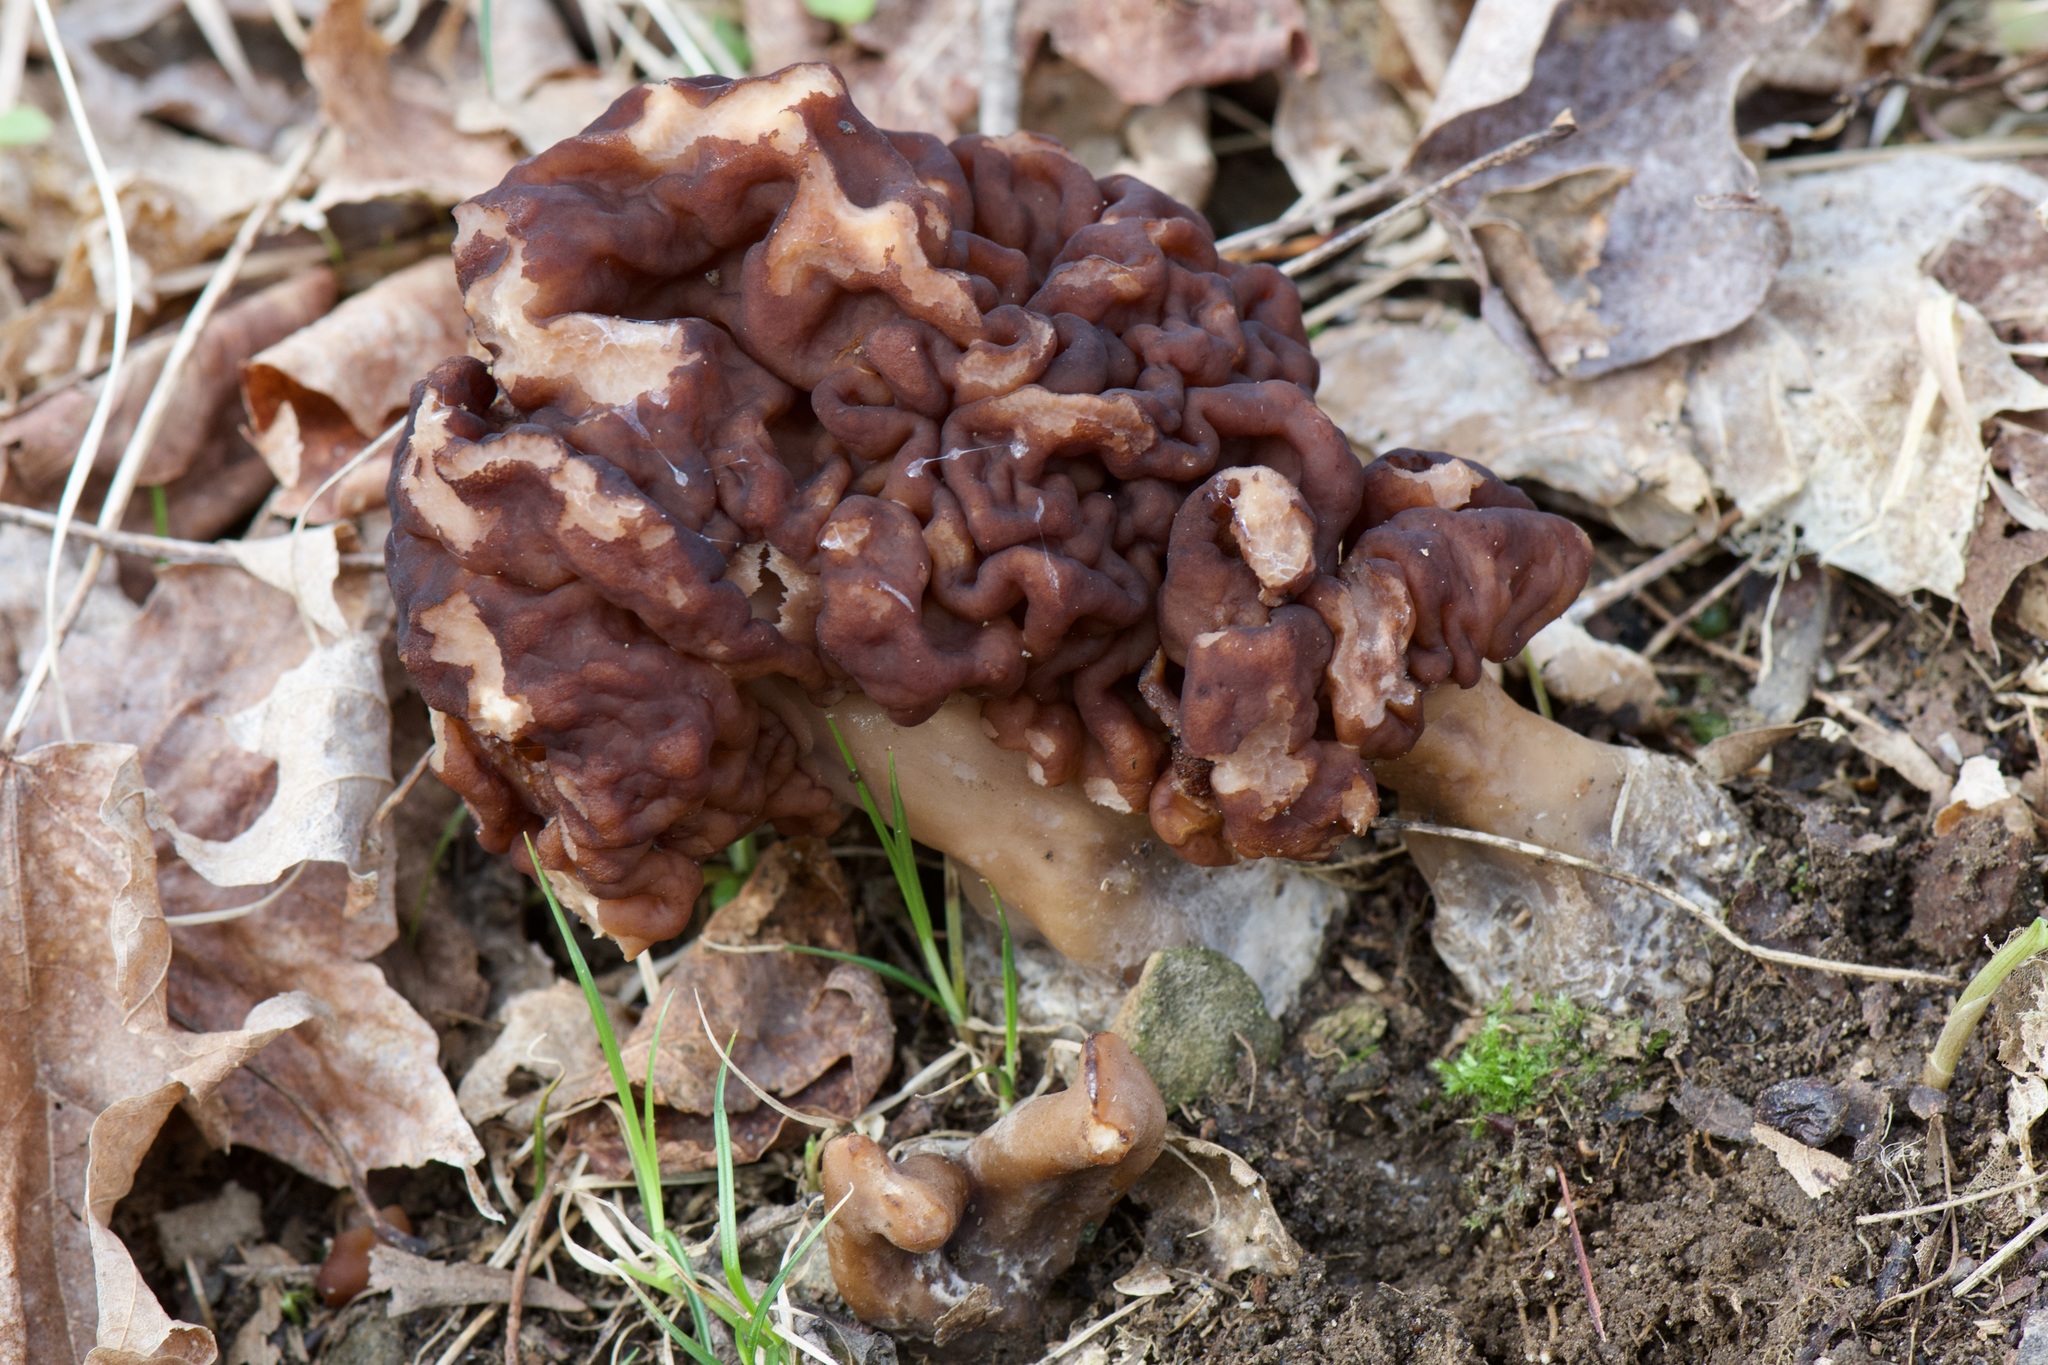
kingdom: Fungi
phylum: Ascomycota
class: Pezizomycetes
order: Pezizales
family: Discinaceae
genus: Gyromitra
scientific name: Gyromitra esculenta
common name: False morel
